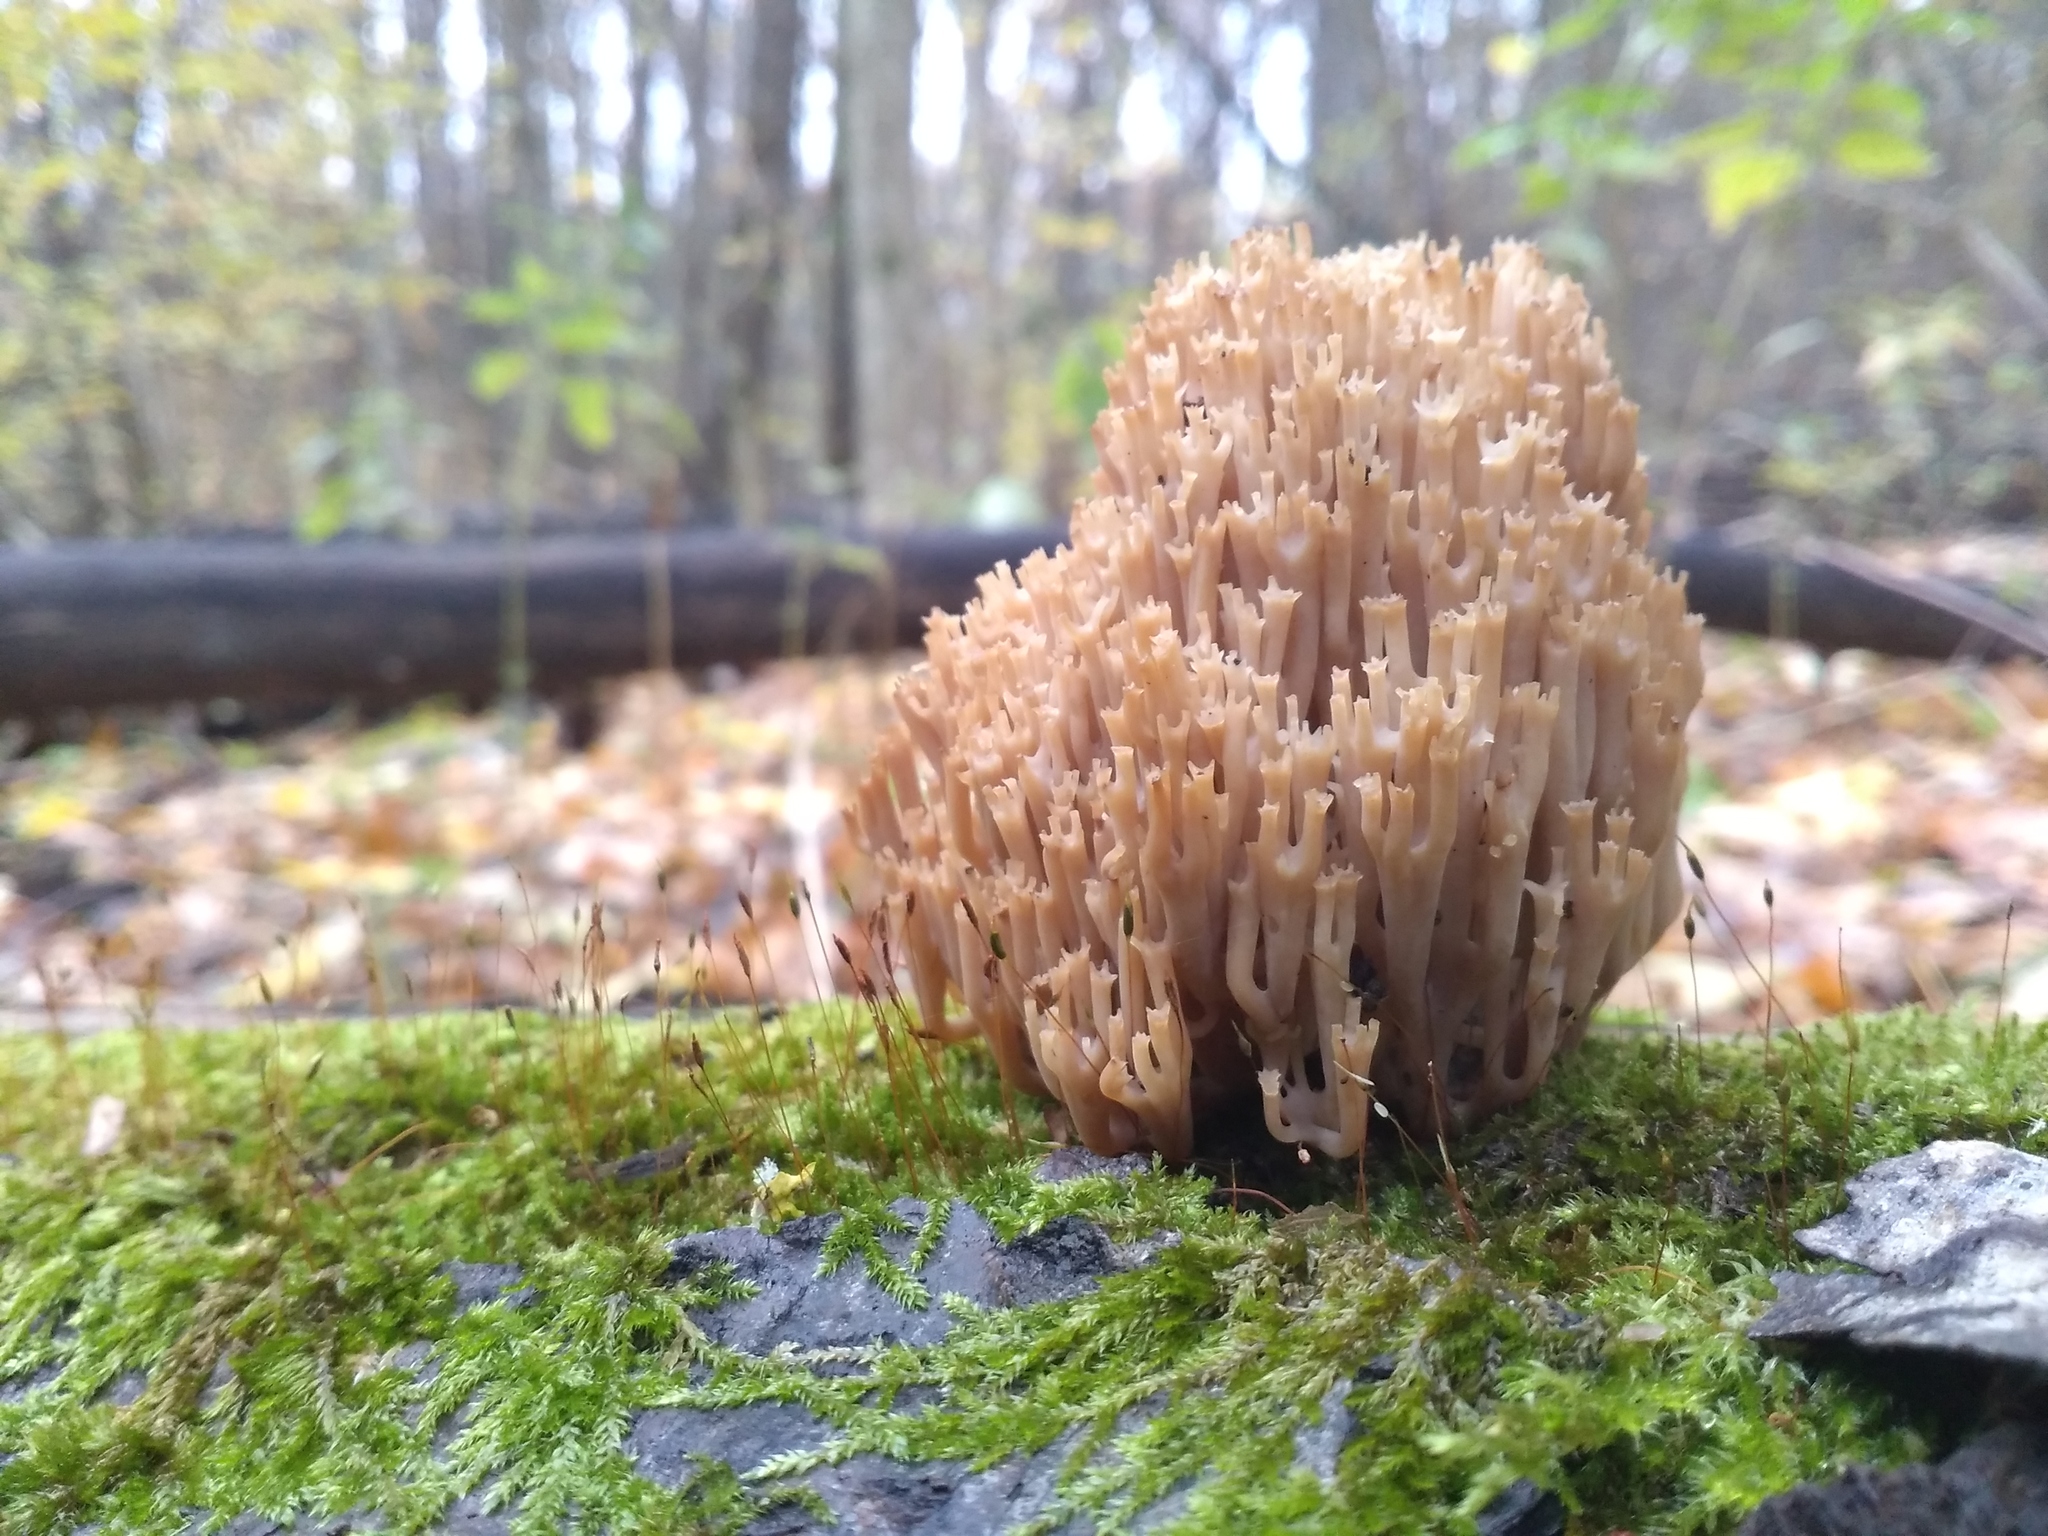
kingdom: Fungi
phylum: Basidiomycota
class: Agaricomycetes
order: Russulales
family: Auriscalpiaceae
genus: Artomyces
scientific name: Artomyces pyxidatus
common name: Crown-tipped coral fungus
